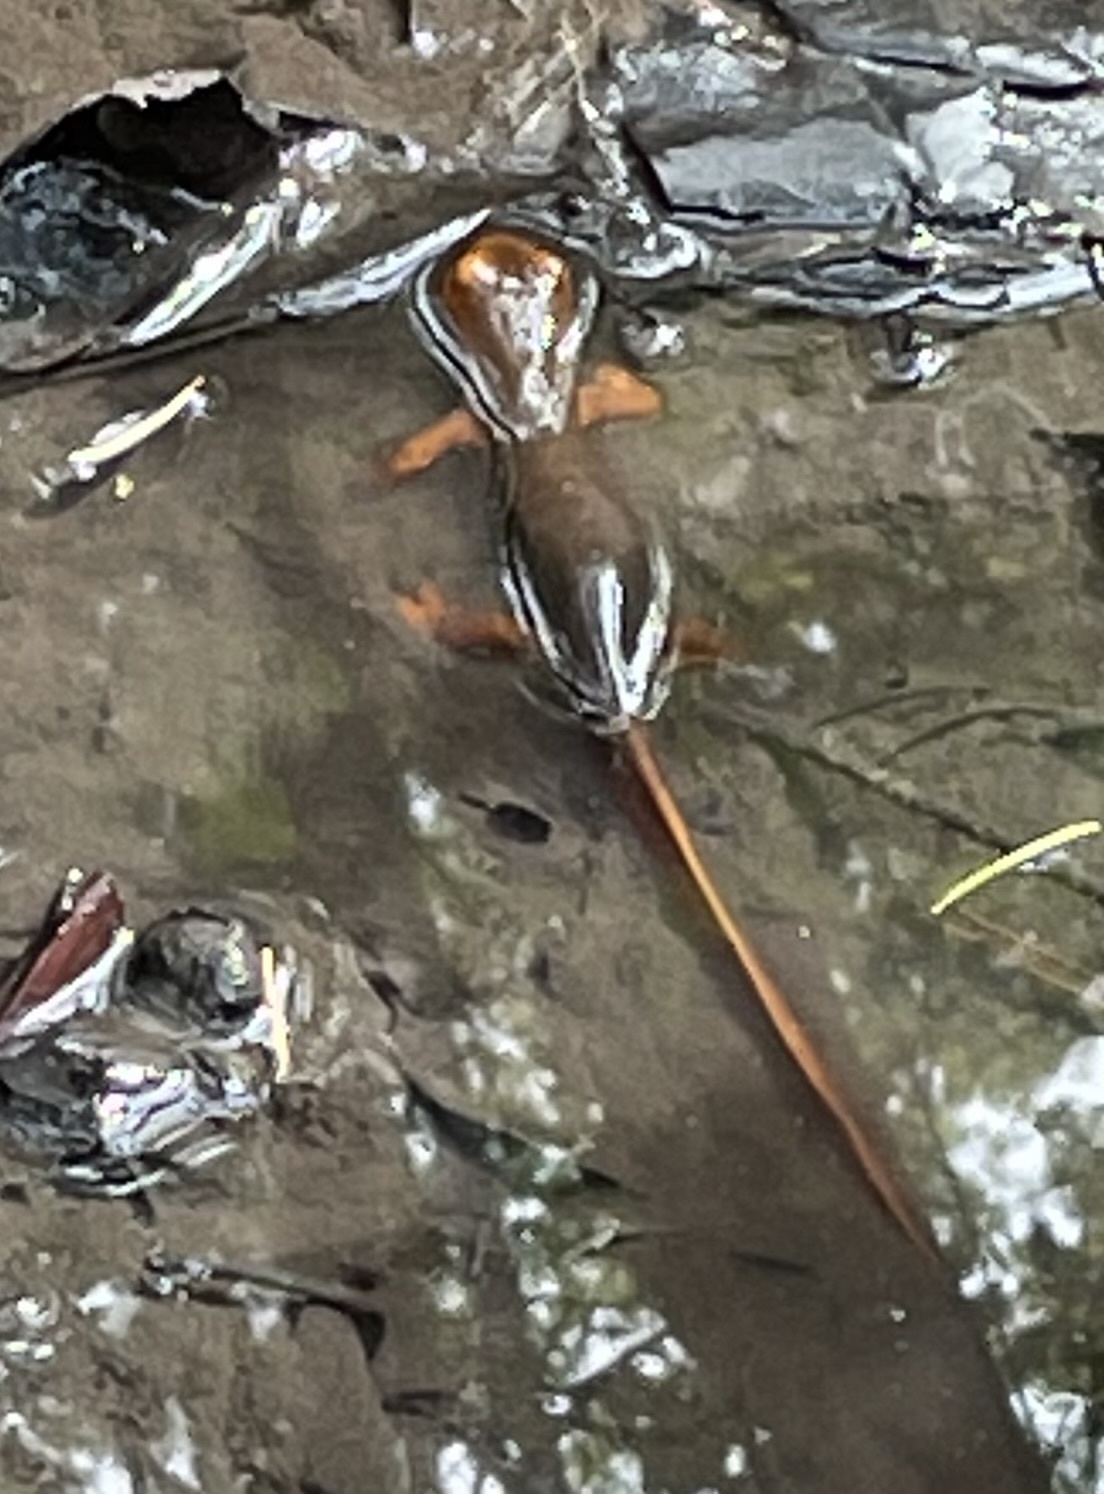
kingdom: Animalia
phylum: Chordata
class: Amphibia
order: Caudata
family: Salamandridae
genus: Taricha
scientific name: Taricha sierrae
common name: Sierra newt
